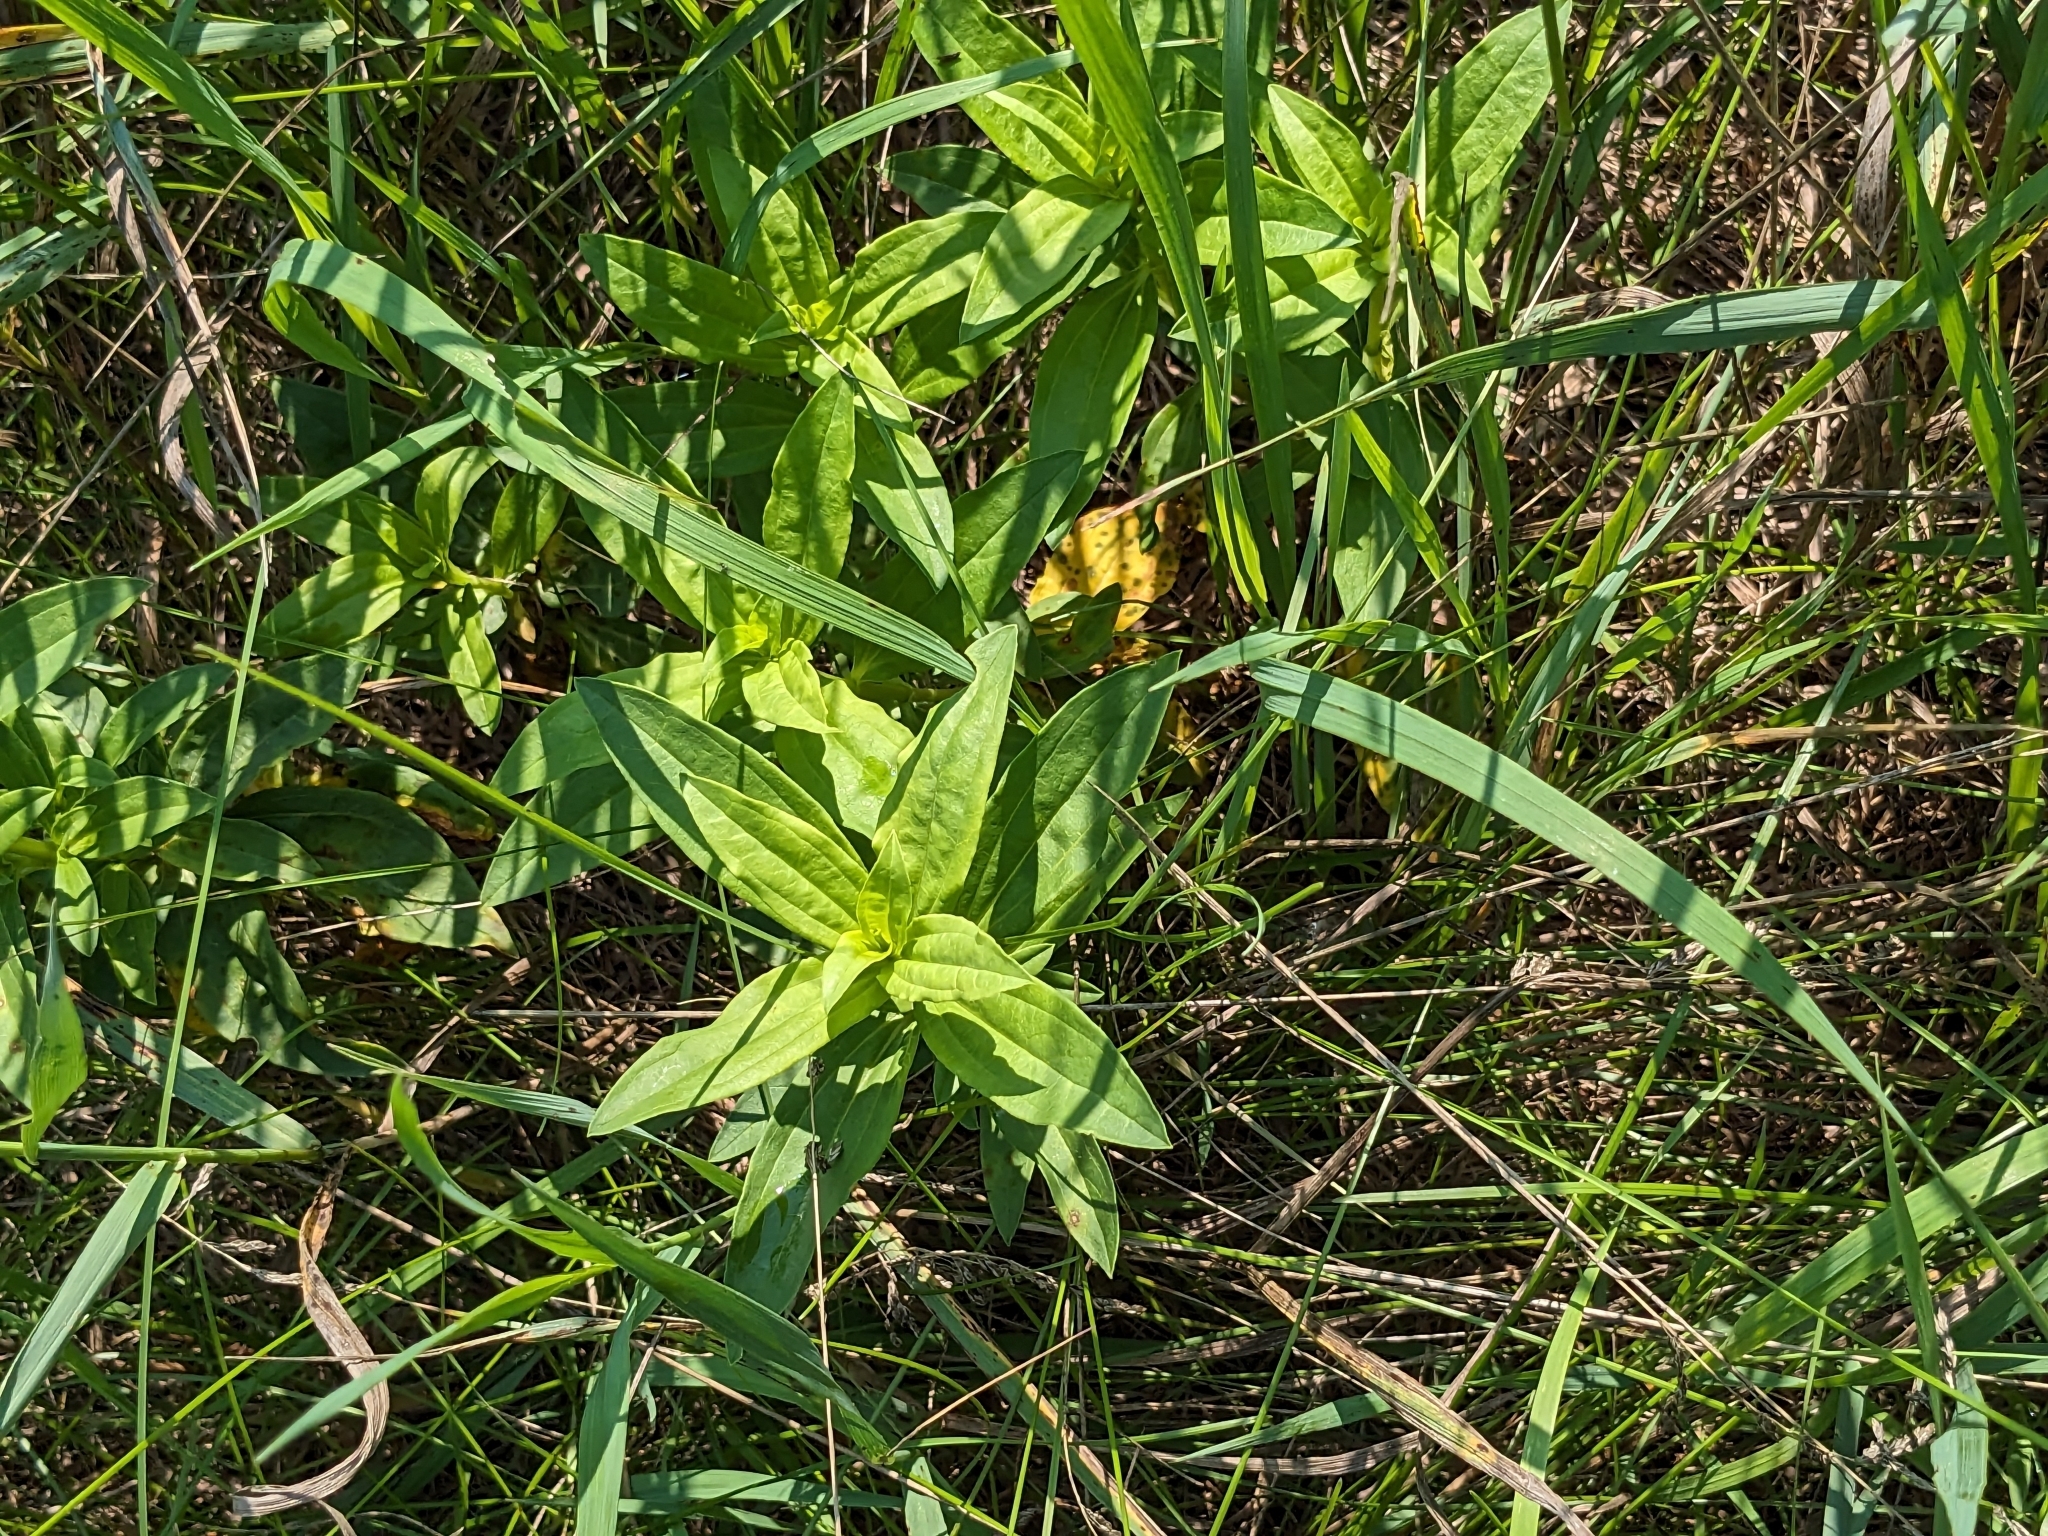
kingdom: Plantae
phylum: Tracheophyta
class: Magnoliopsida
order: Caryophyllales
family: Caryophyllaceae
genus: Saponaria
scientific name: Saponaria officinalis
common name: Soapwort
